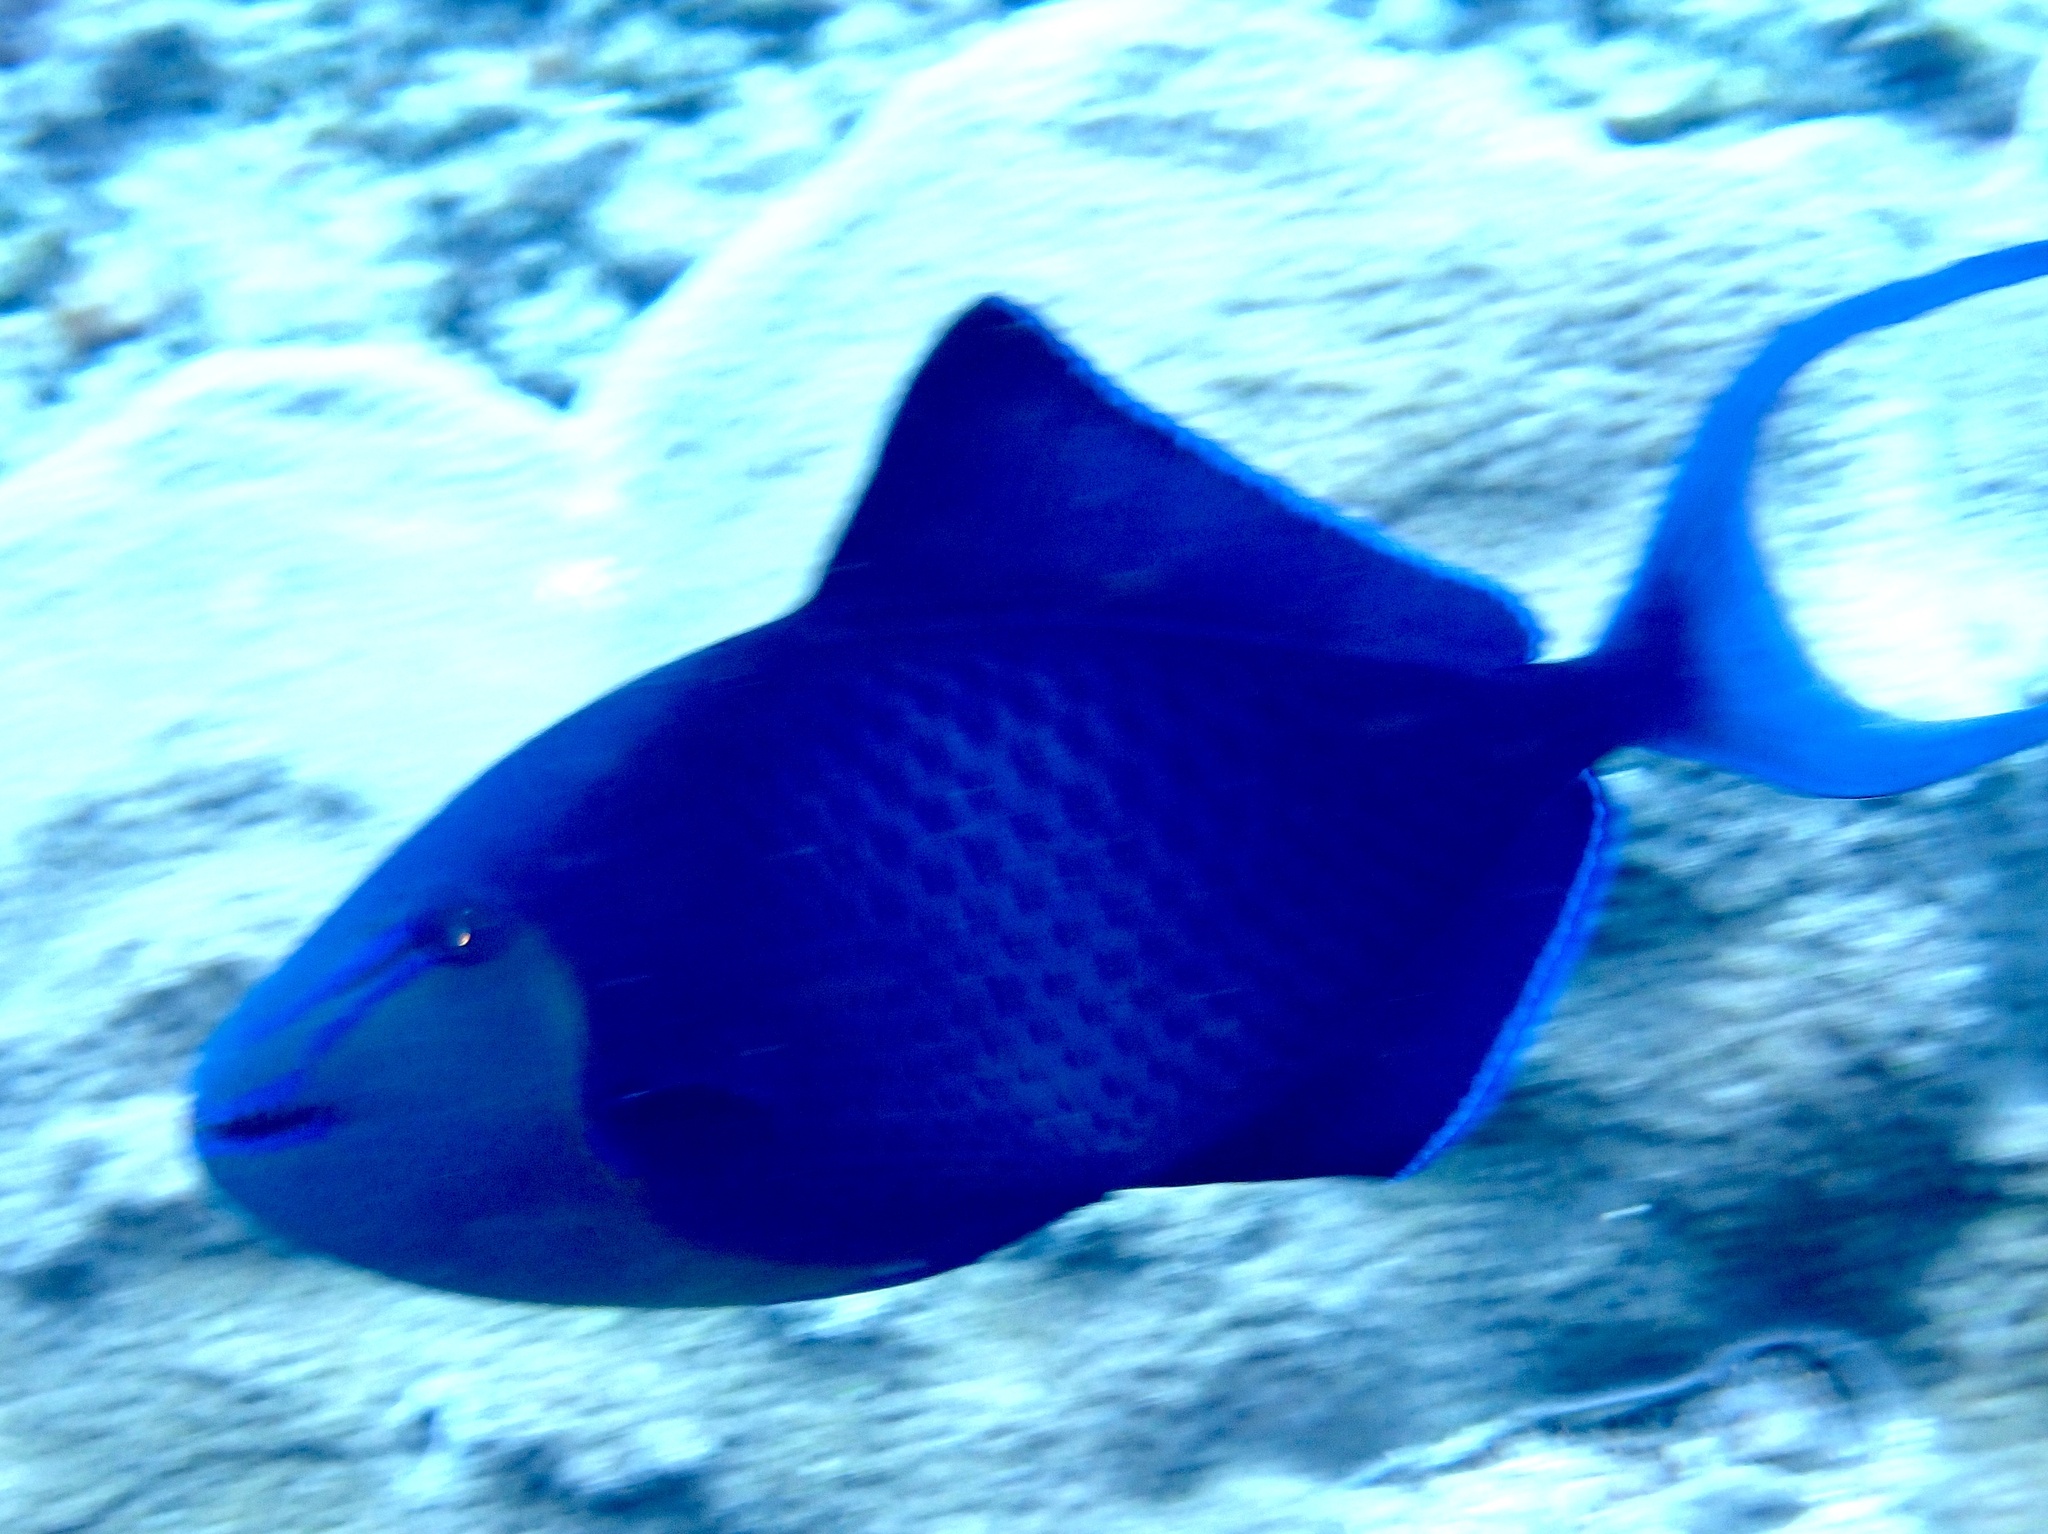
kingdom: Animalia
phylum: Chordata
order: Tetraodontiformes
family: Balistidae
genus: Odonus
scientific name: Odonus niger
